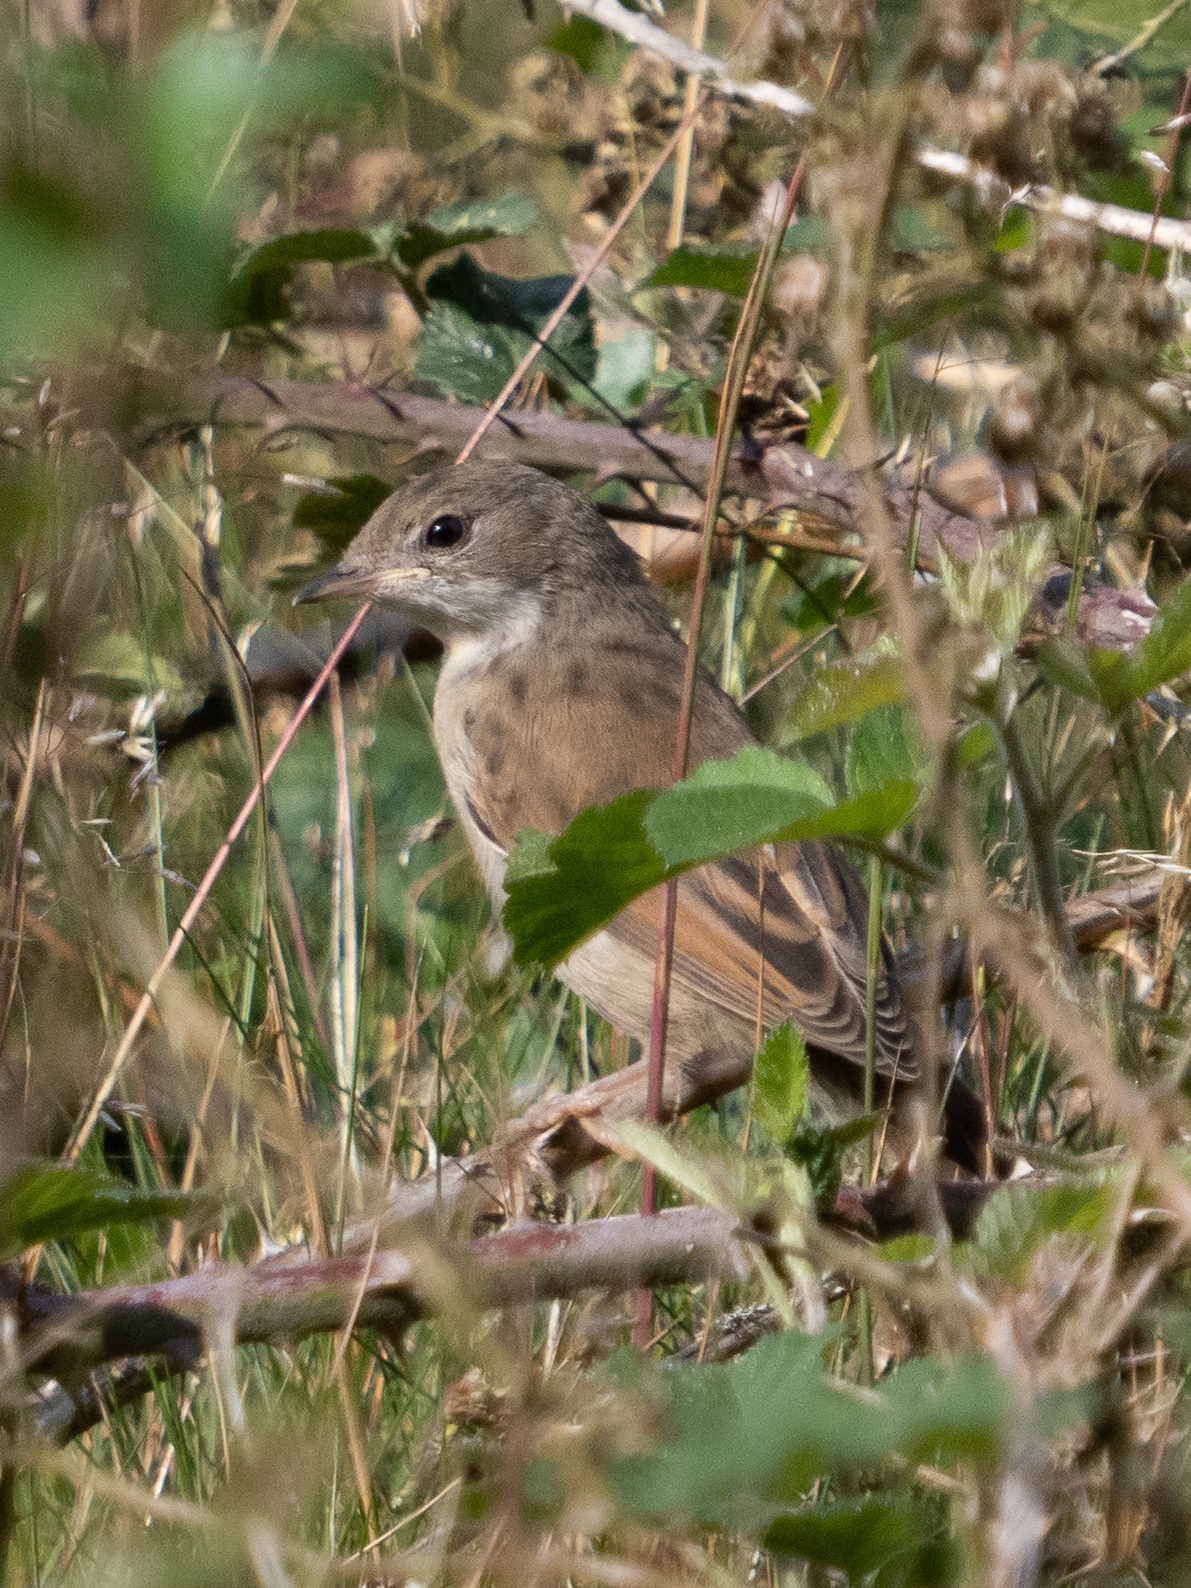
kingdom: Animalia
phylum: Chordata
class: Aves
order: Passeriformes
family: Sylviidae
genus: Sylvia
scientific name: Sylvia communis
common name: Common whitethroat
